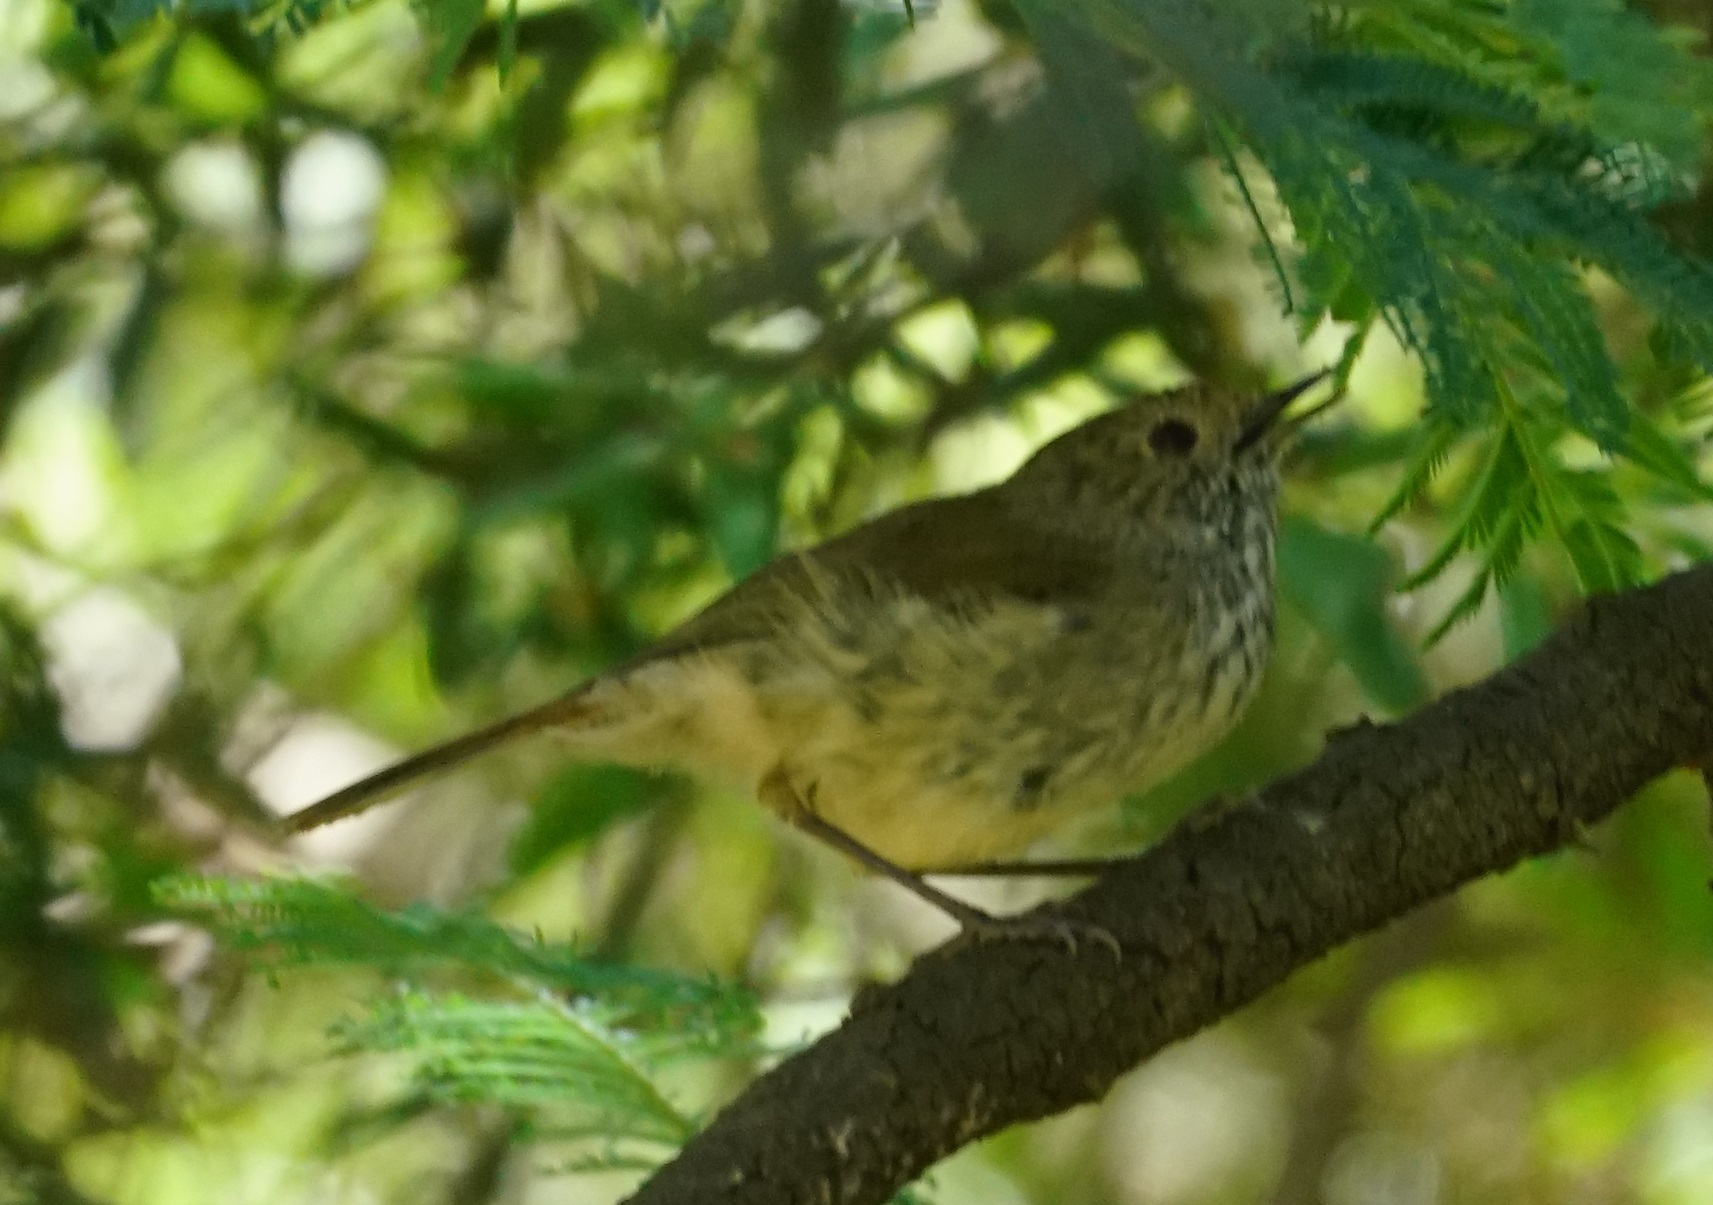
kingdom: Animalia
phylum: Chordata
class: Aves
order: Passeriformes
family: Acanthizidae
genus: Acanthiza
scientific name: Acanthiza pusilla
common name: Brown thornbill
